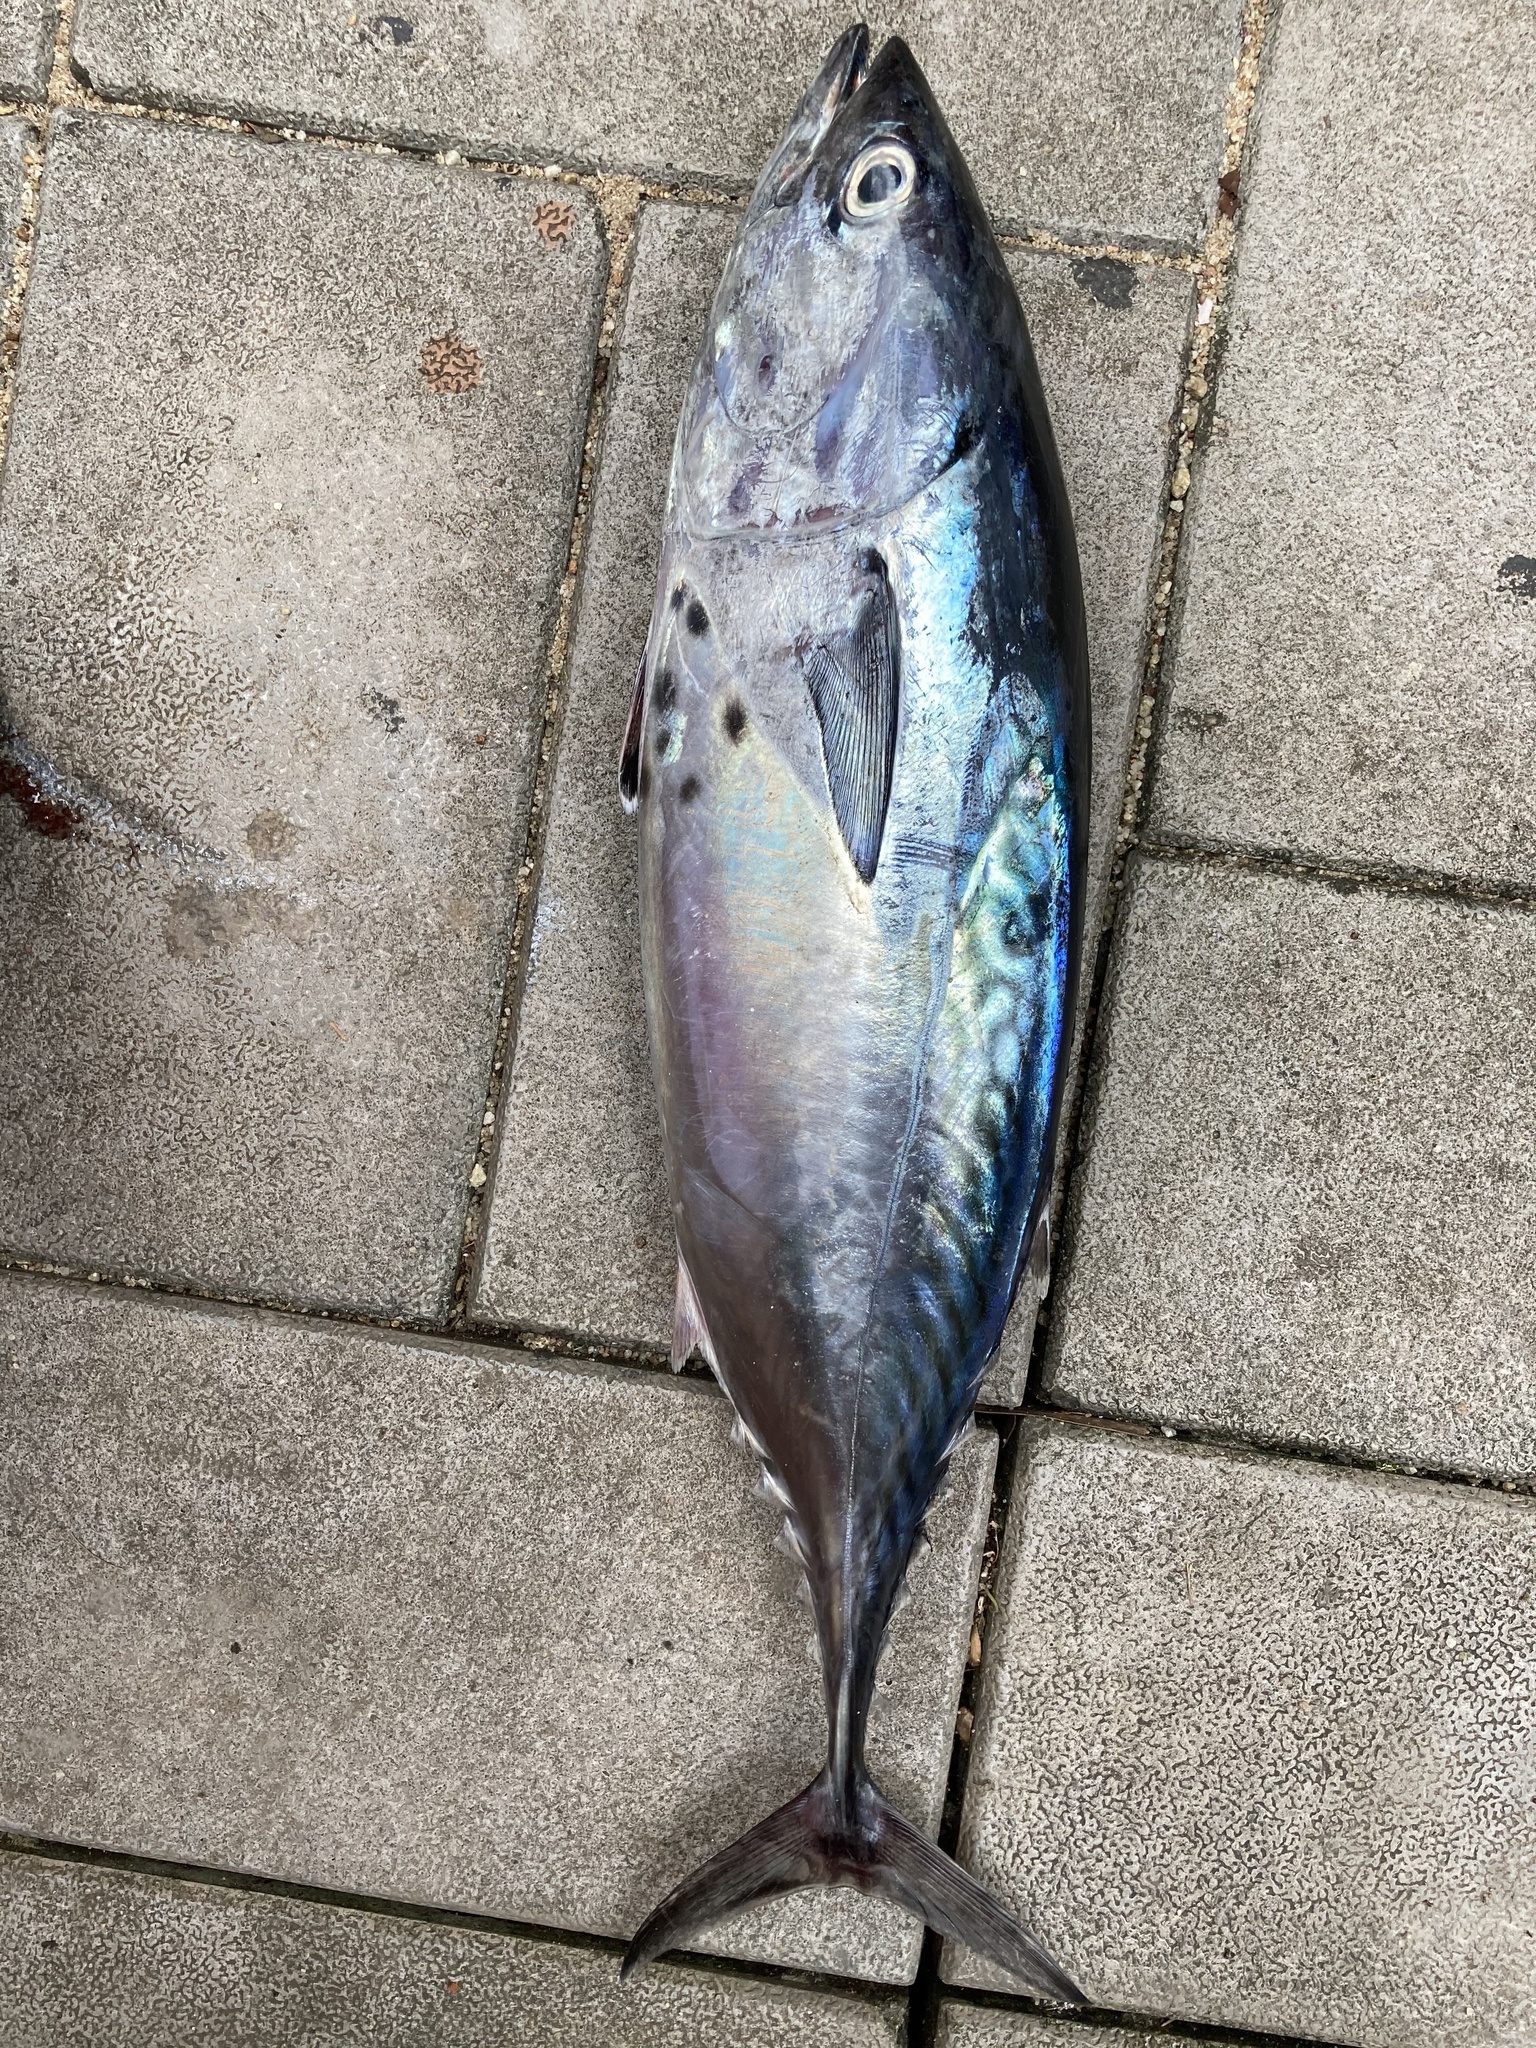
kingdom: Animalia
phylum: Chordata
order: Perciformes
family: Scombridae
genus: Euthynnus
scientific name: Euthynnus affinis
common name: Mackerel tuna
